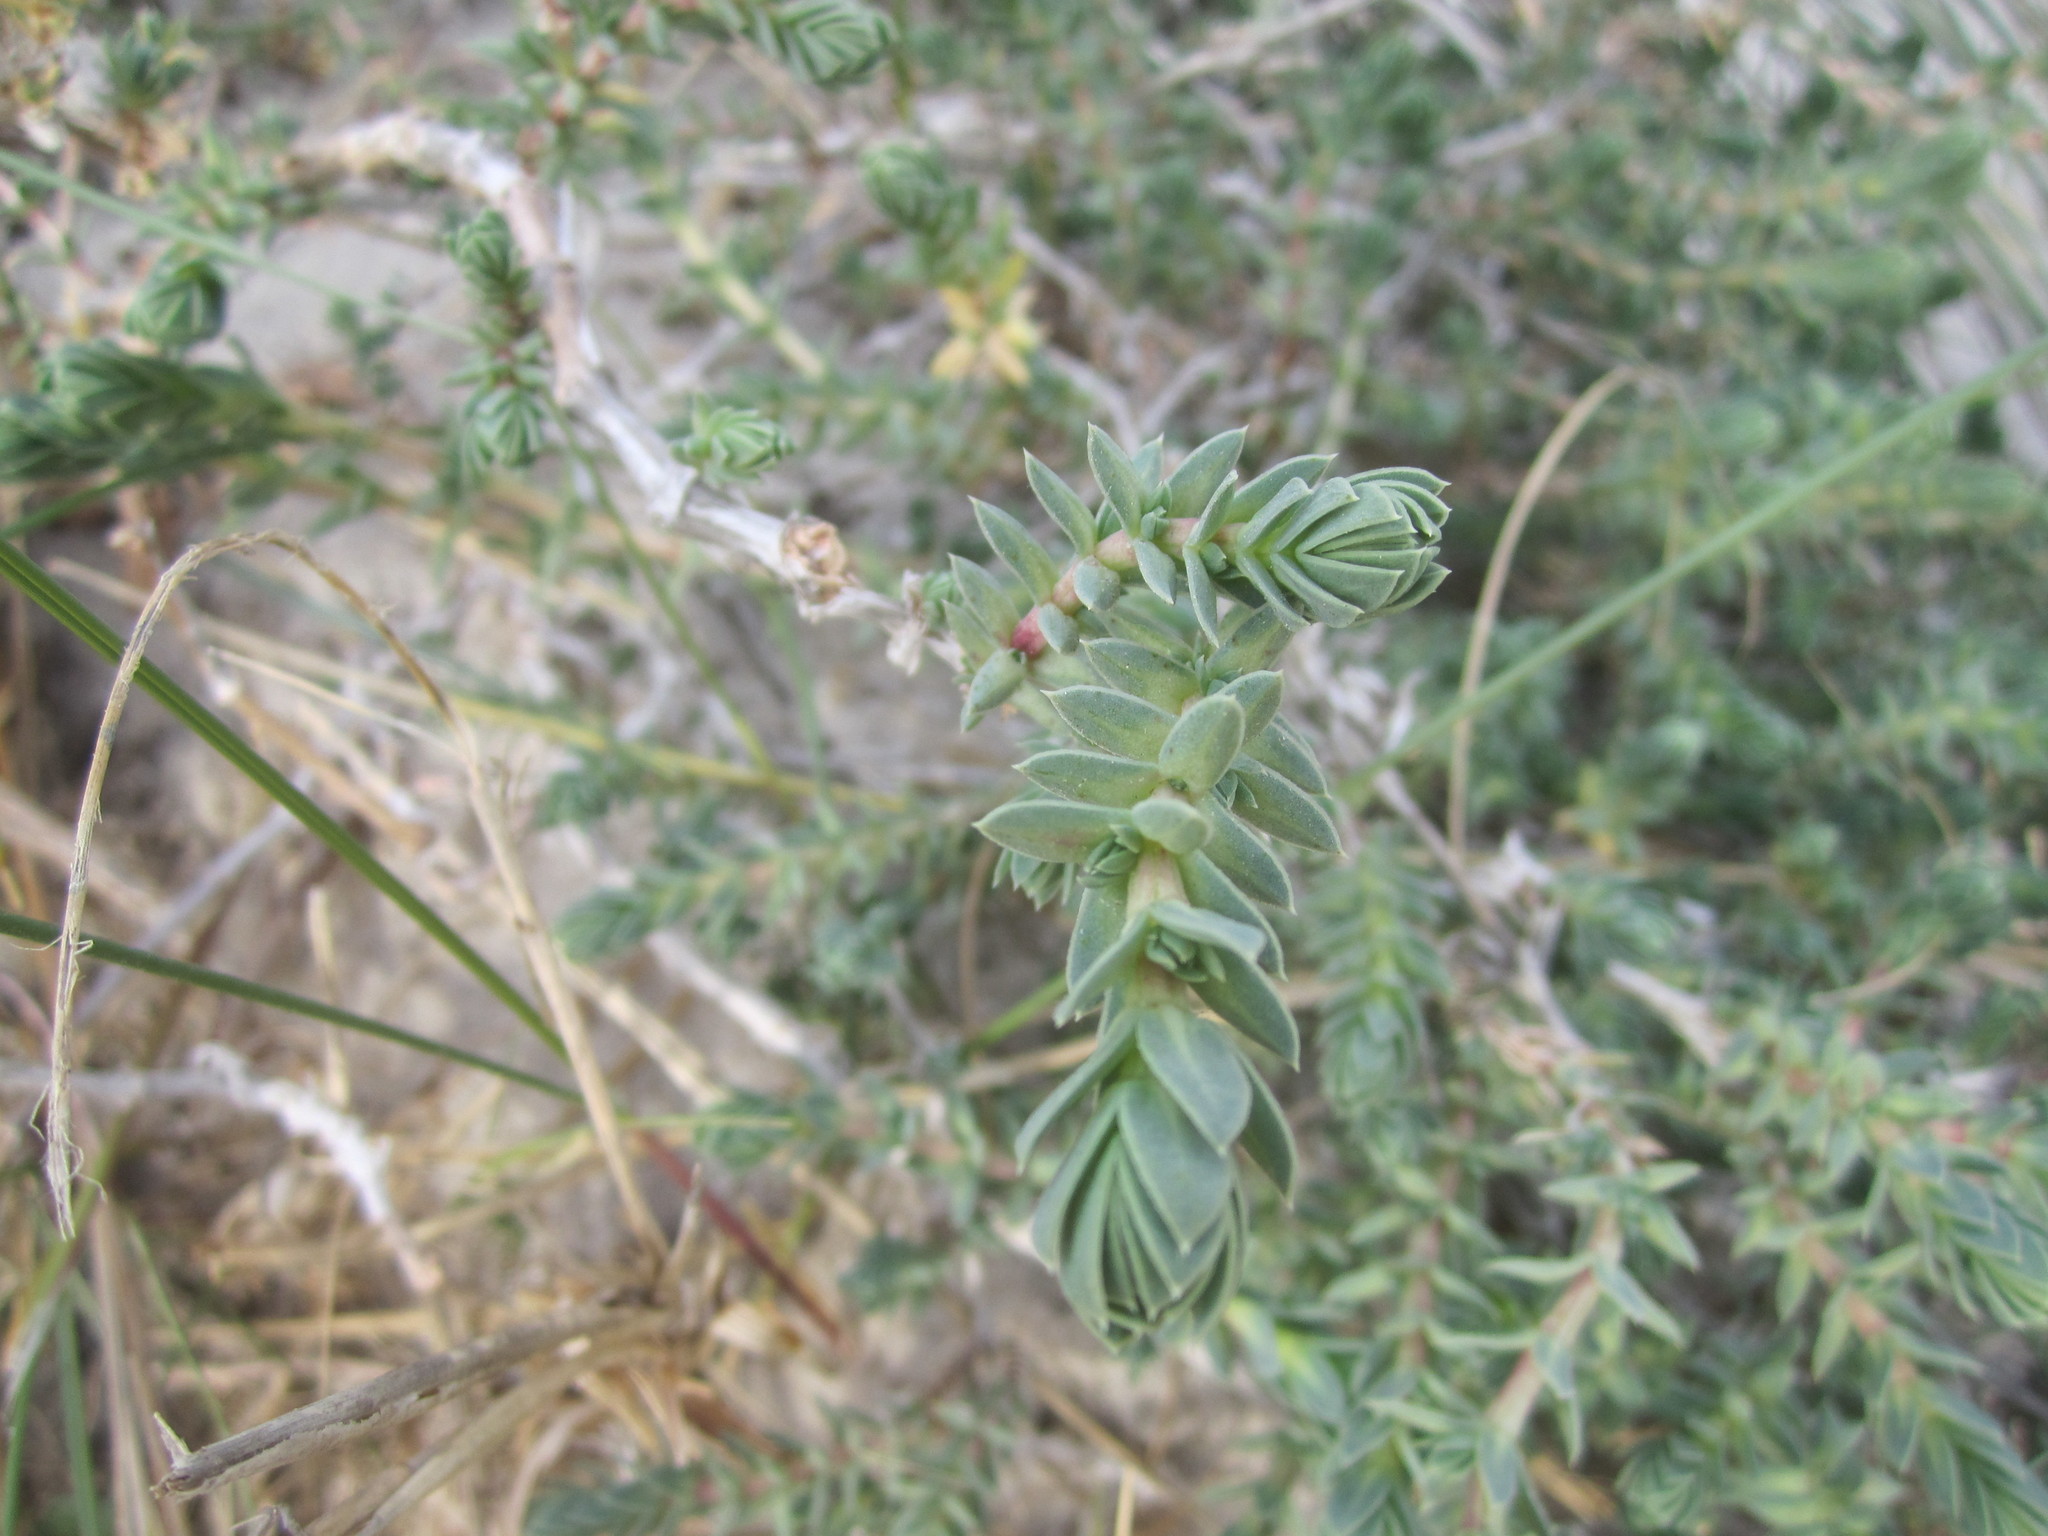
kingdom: Plantae
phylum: Tracheophyta
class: Magnoliopsida
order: Gentianales
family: Rubiaceae
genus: Crucianella
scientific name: Crucianella maritima
